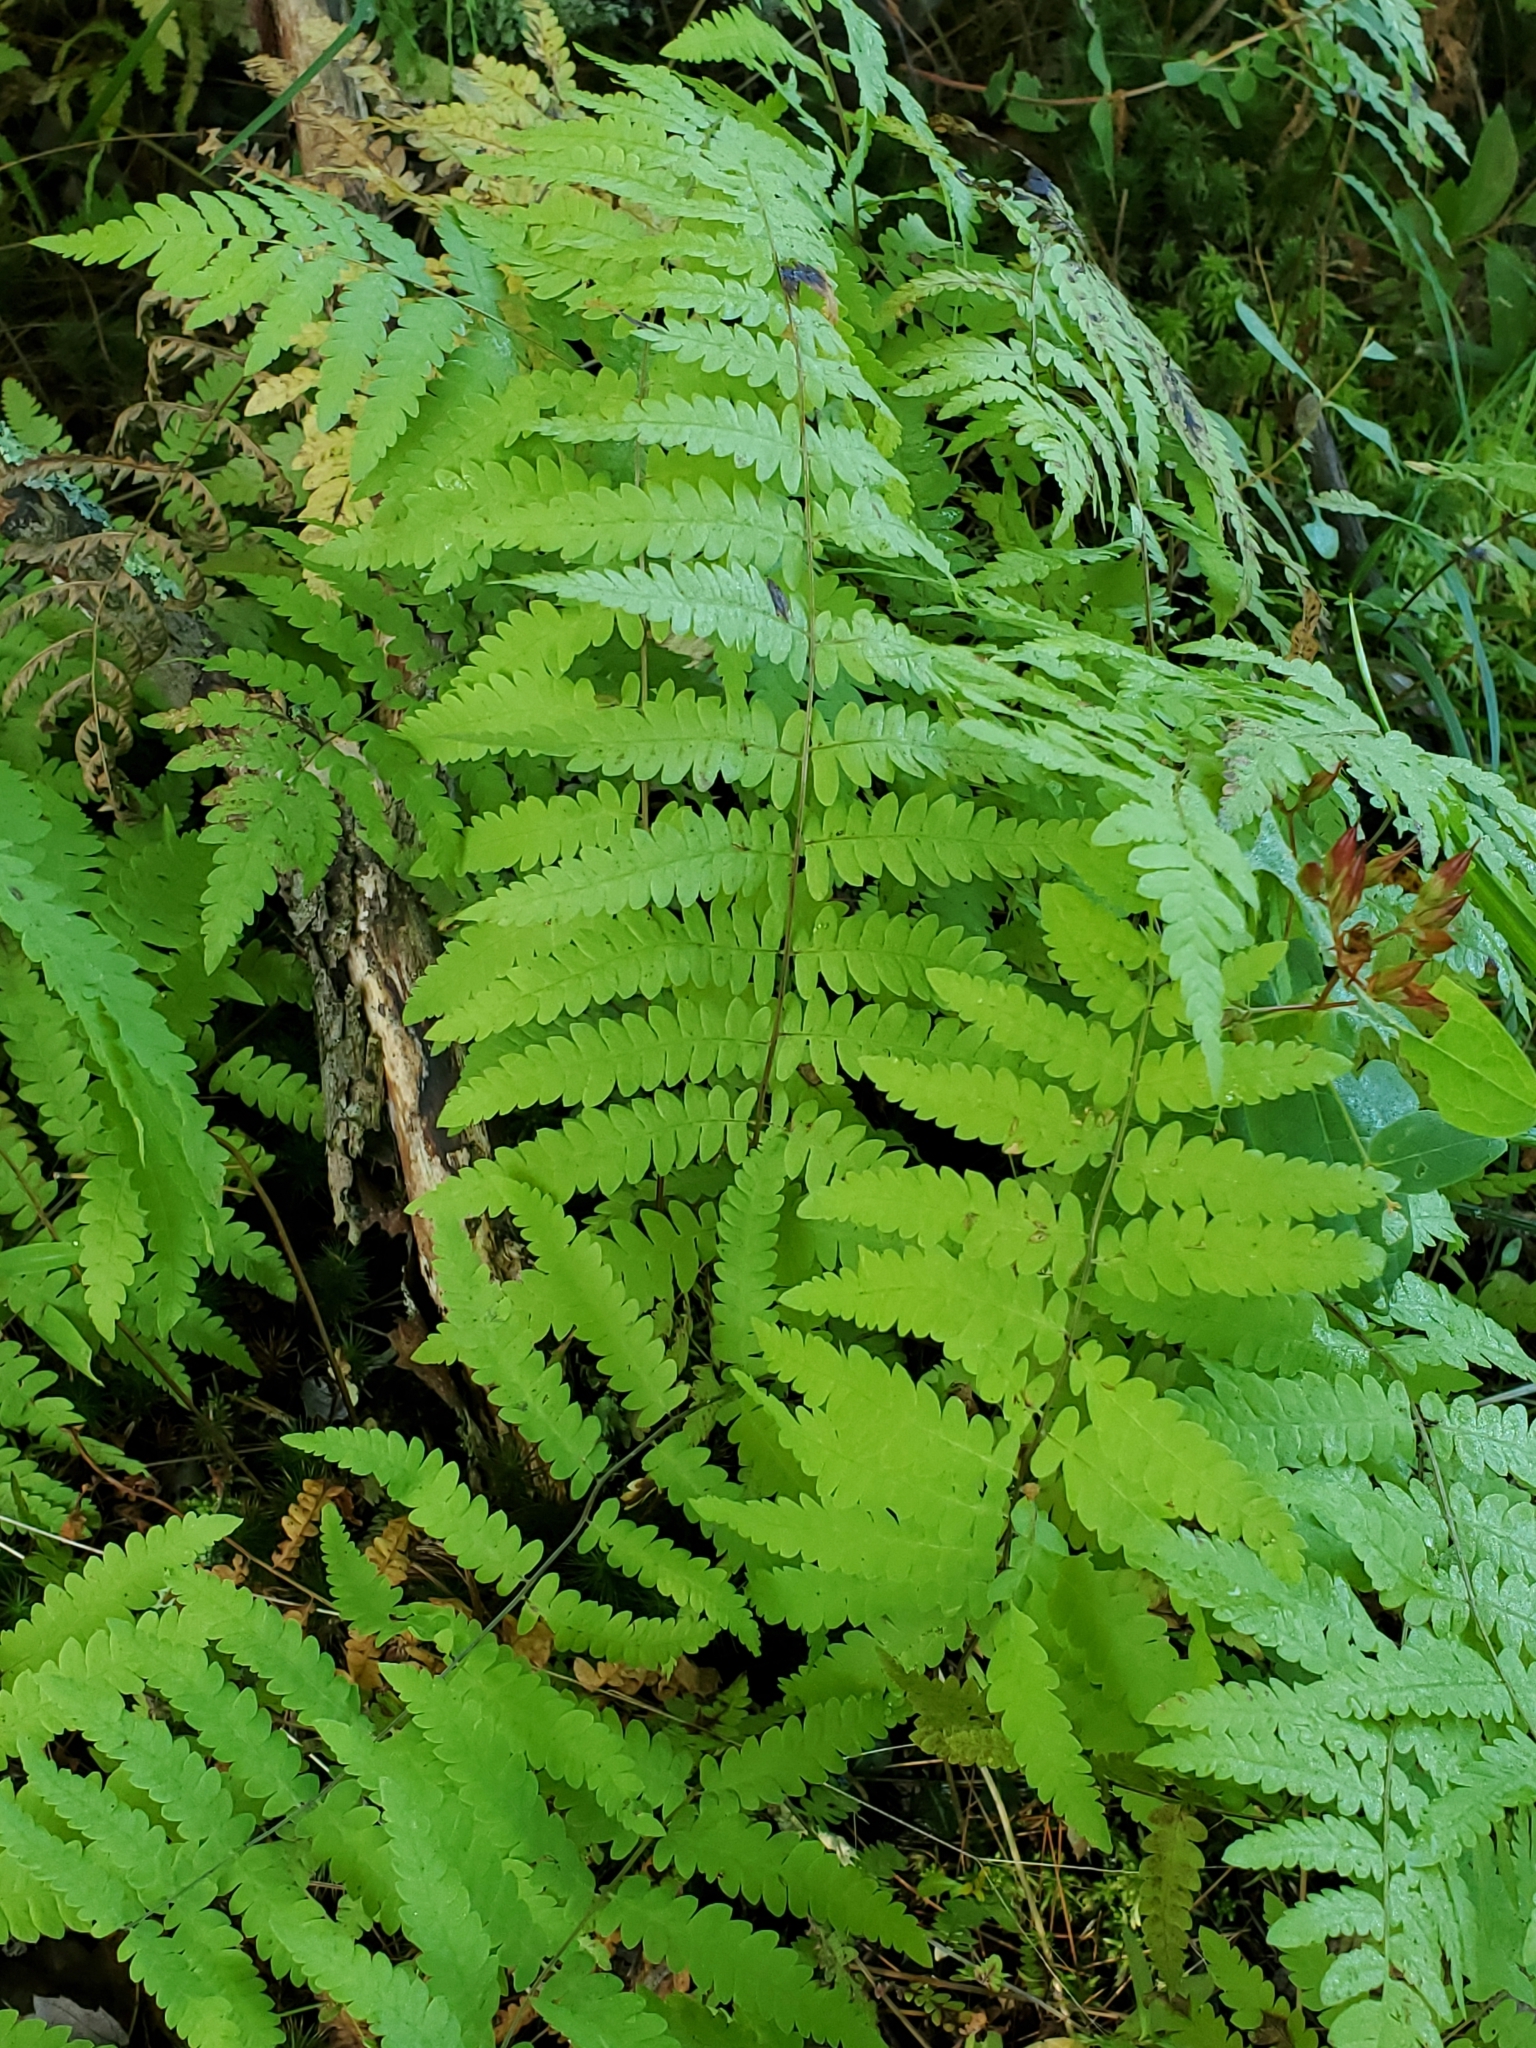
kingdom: Plantae
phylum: Tracheophyta
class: Polypodiopsida
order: Polypodiales
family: Thelypteridaceae
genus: Thelypteris
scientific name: Thelypteris palustris
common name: Marsh fern
